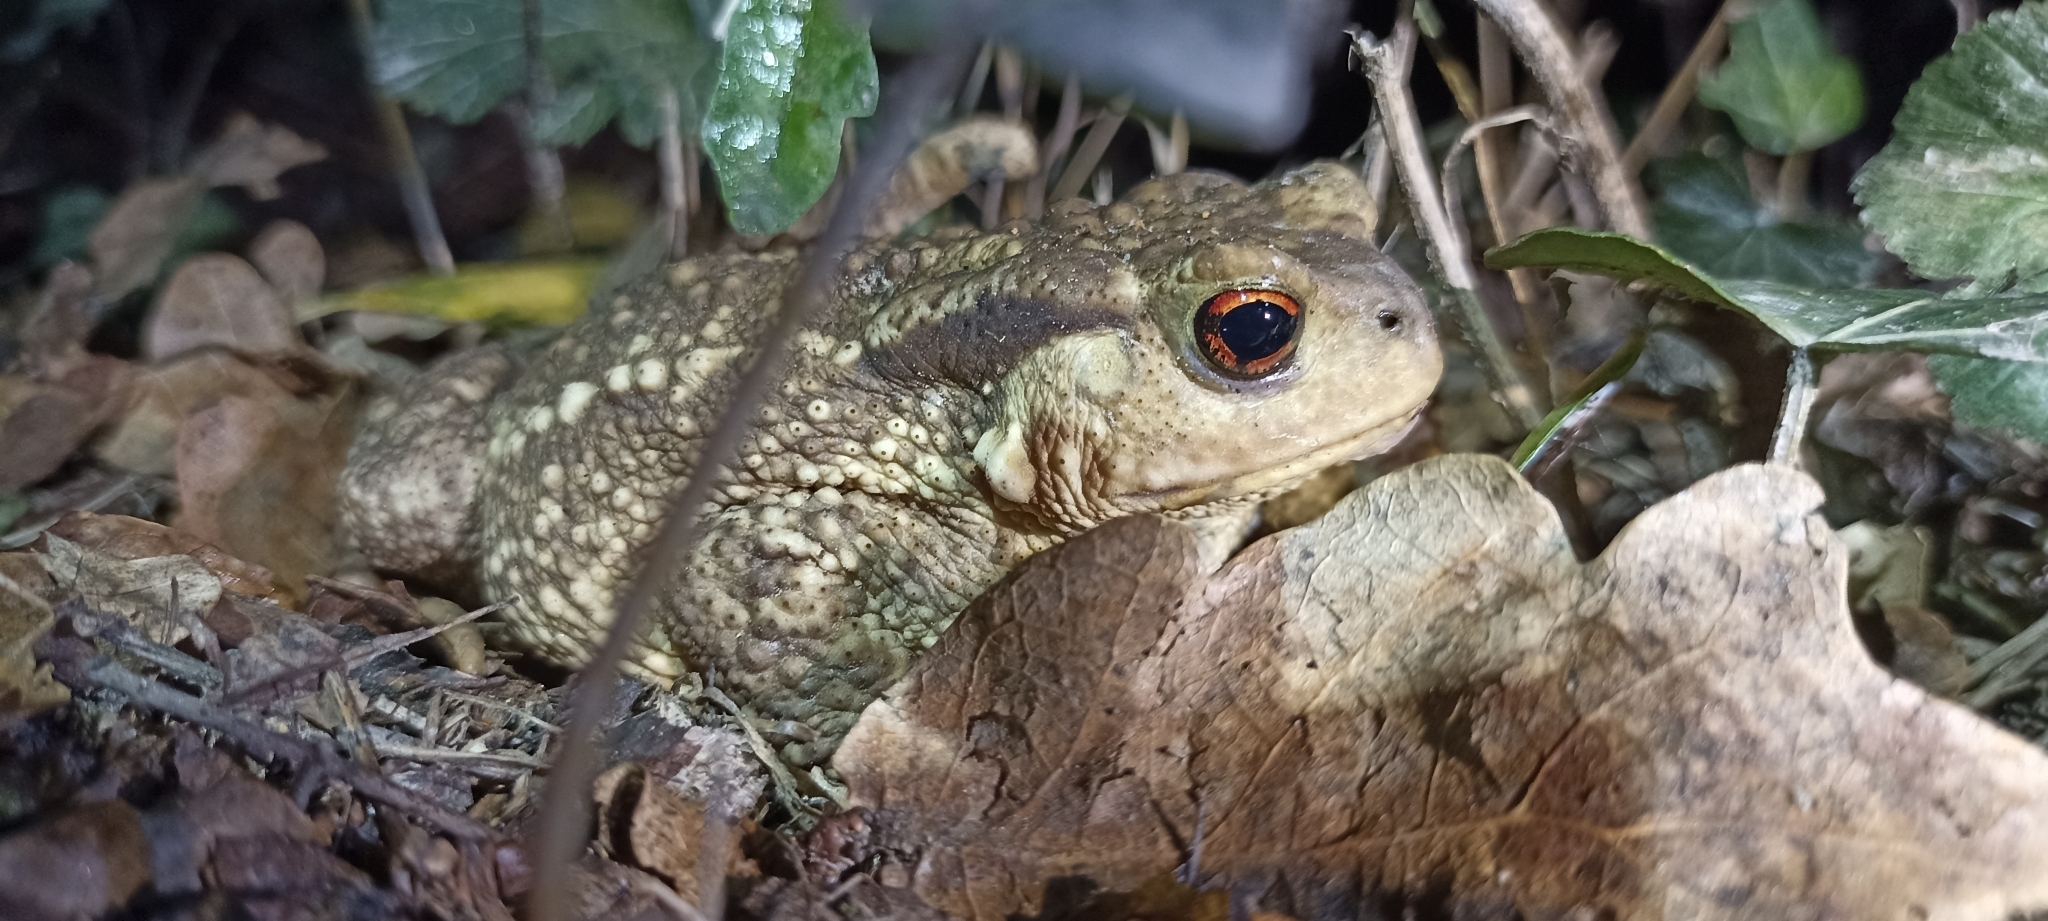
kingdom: Animalia
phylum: Chordata
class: Amphibia
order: Anura
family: Bufonidae
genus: Bufo
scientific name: Bufo spinosus
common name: Western common toad
